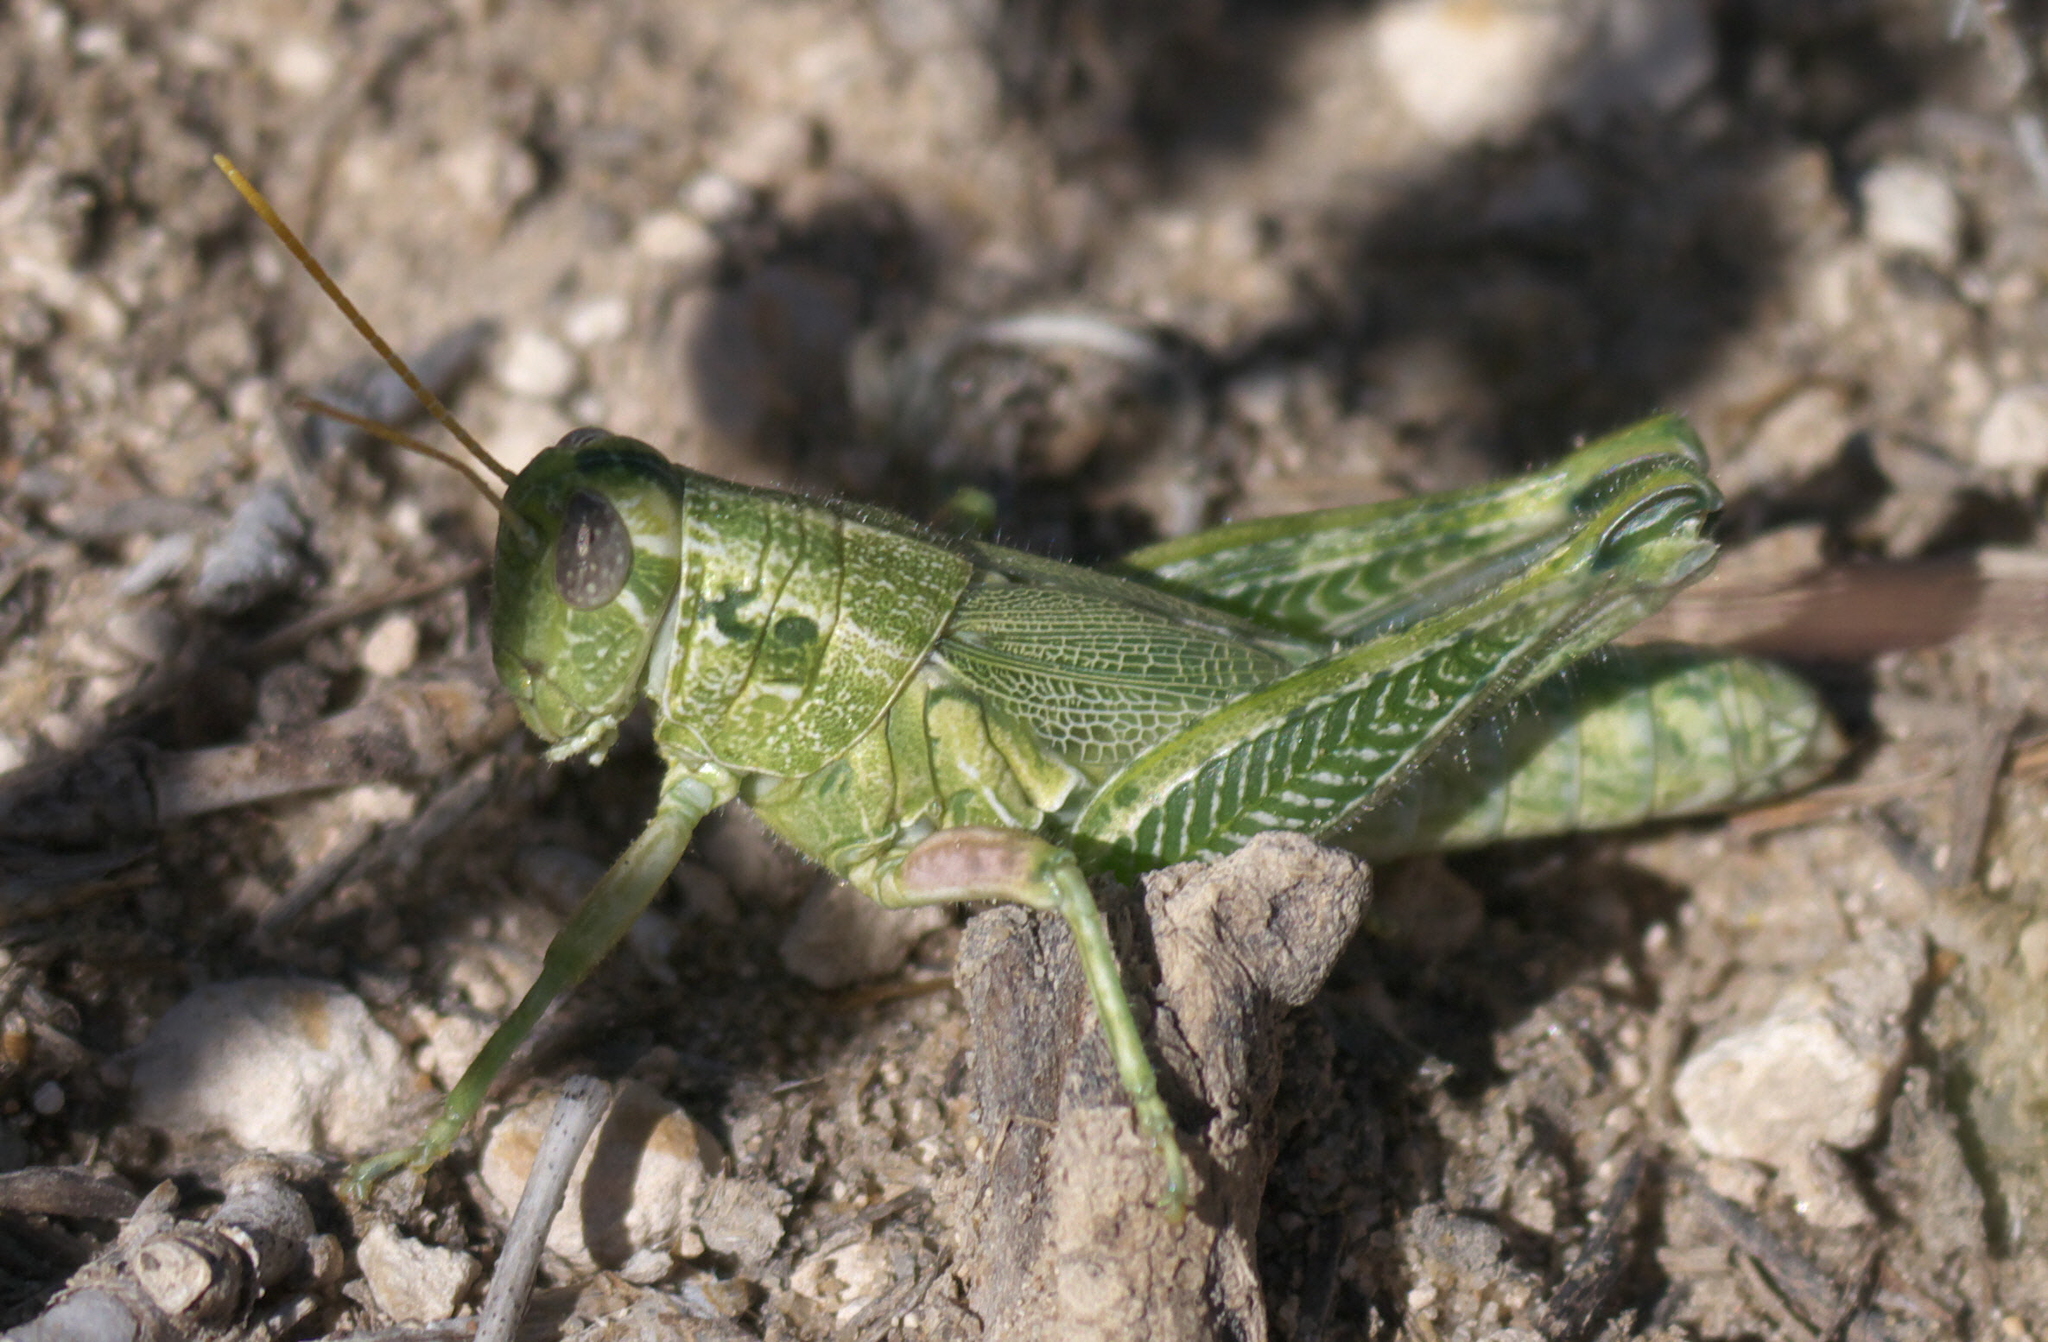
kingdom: Animalia
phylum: Arthropoda
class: Insecta
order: Orthoptera
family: Acrididae
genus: Campylacantha
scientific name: Campylacantha olivacea
